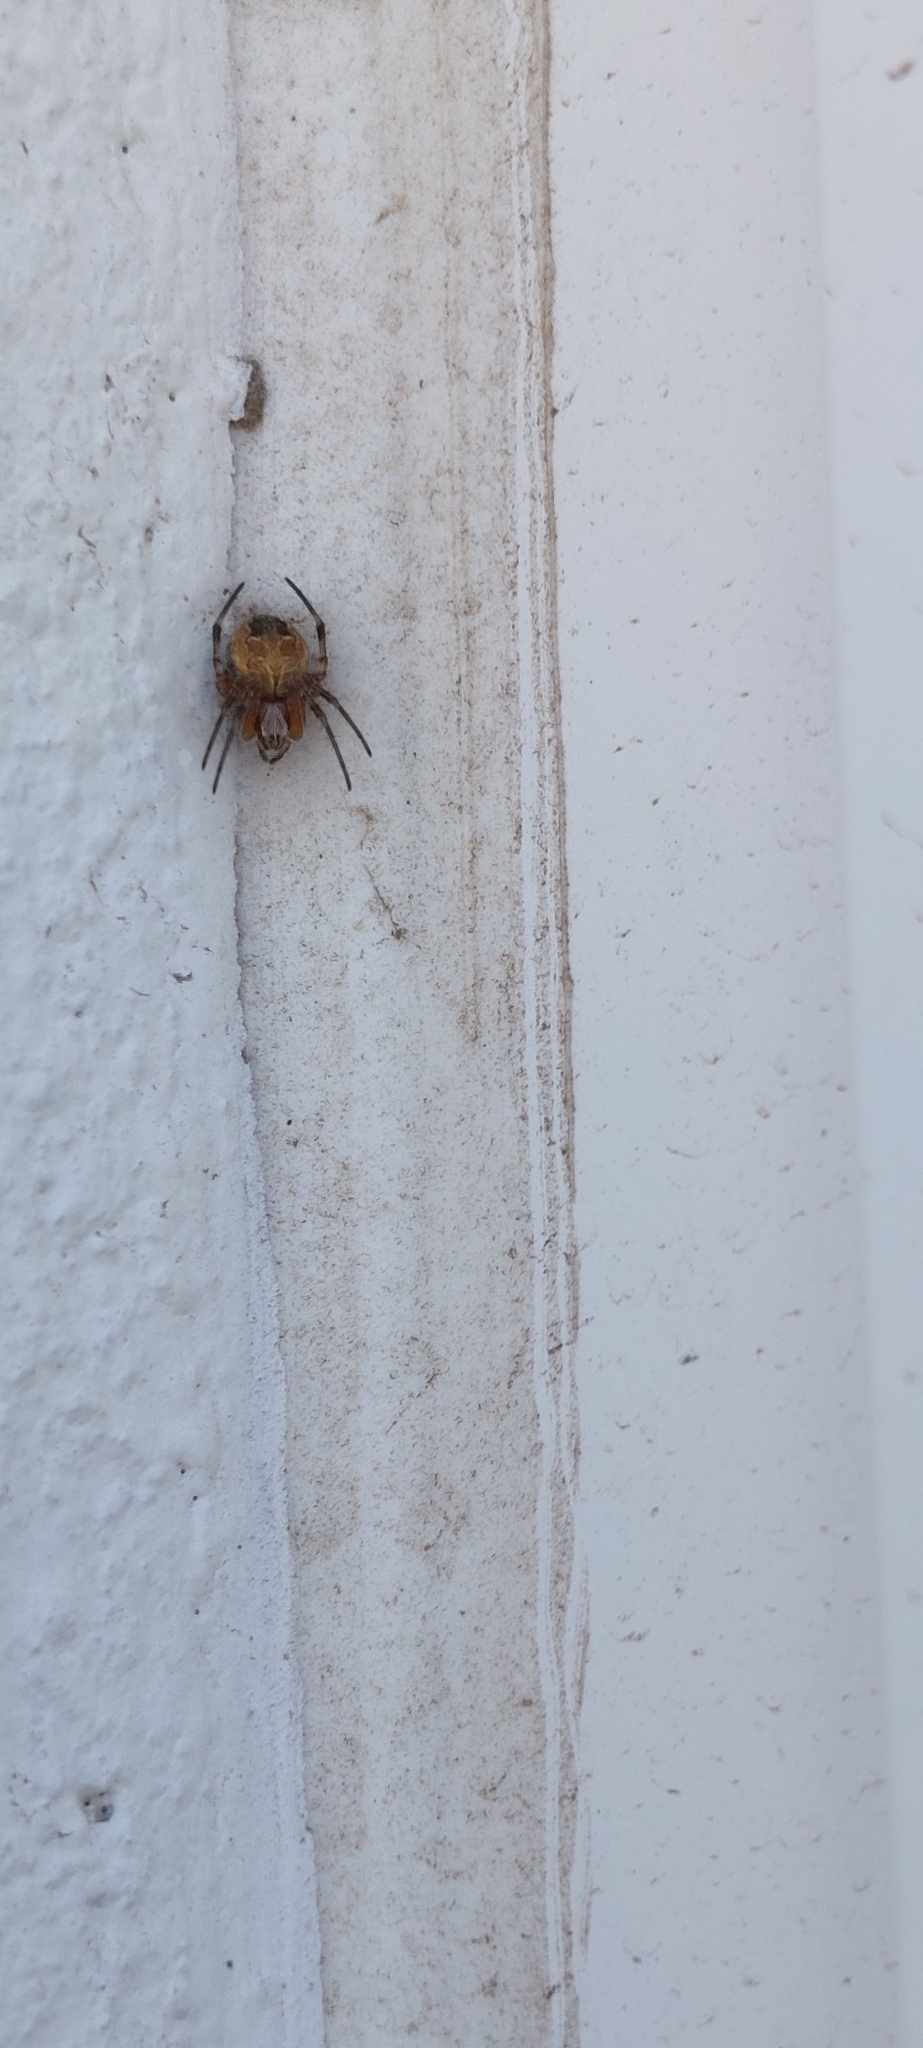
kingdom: Animalia
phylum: Arthropoda
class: Arachnida
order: Araneae
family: Araneidae
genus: Metepeira
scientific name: Metepeira
